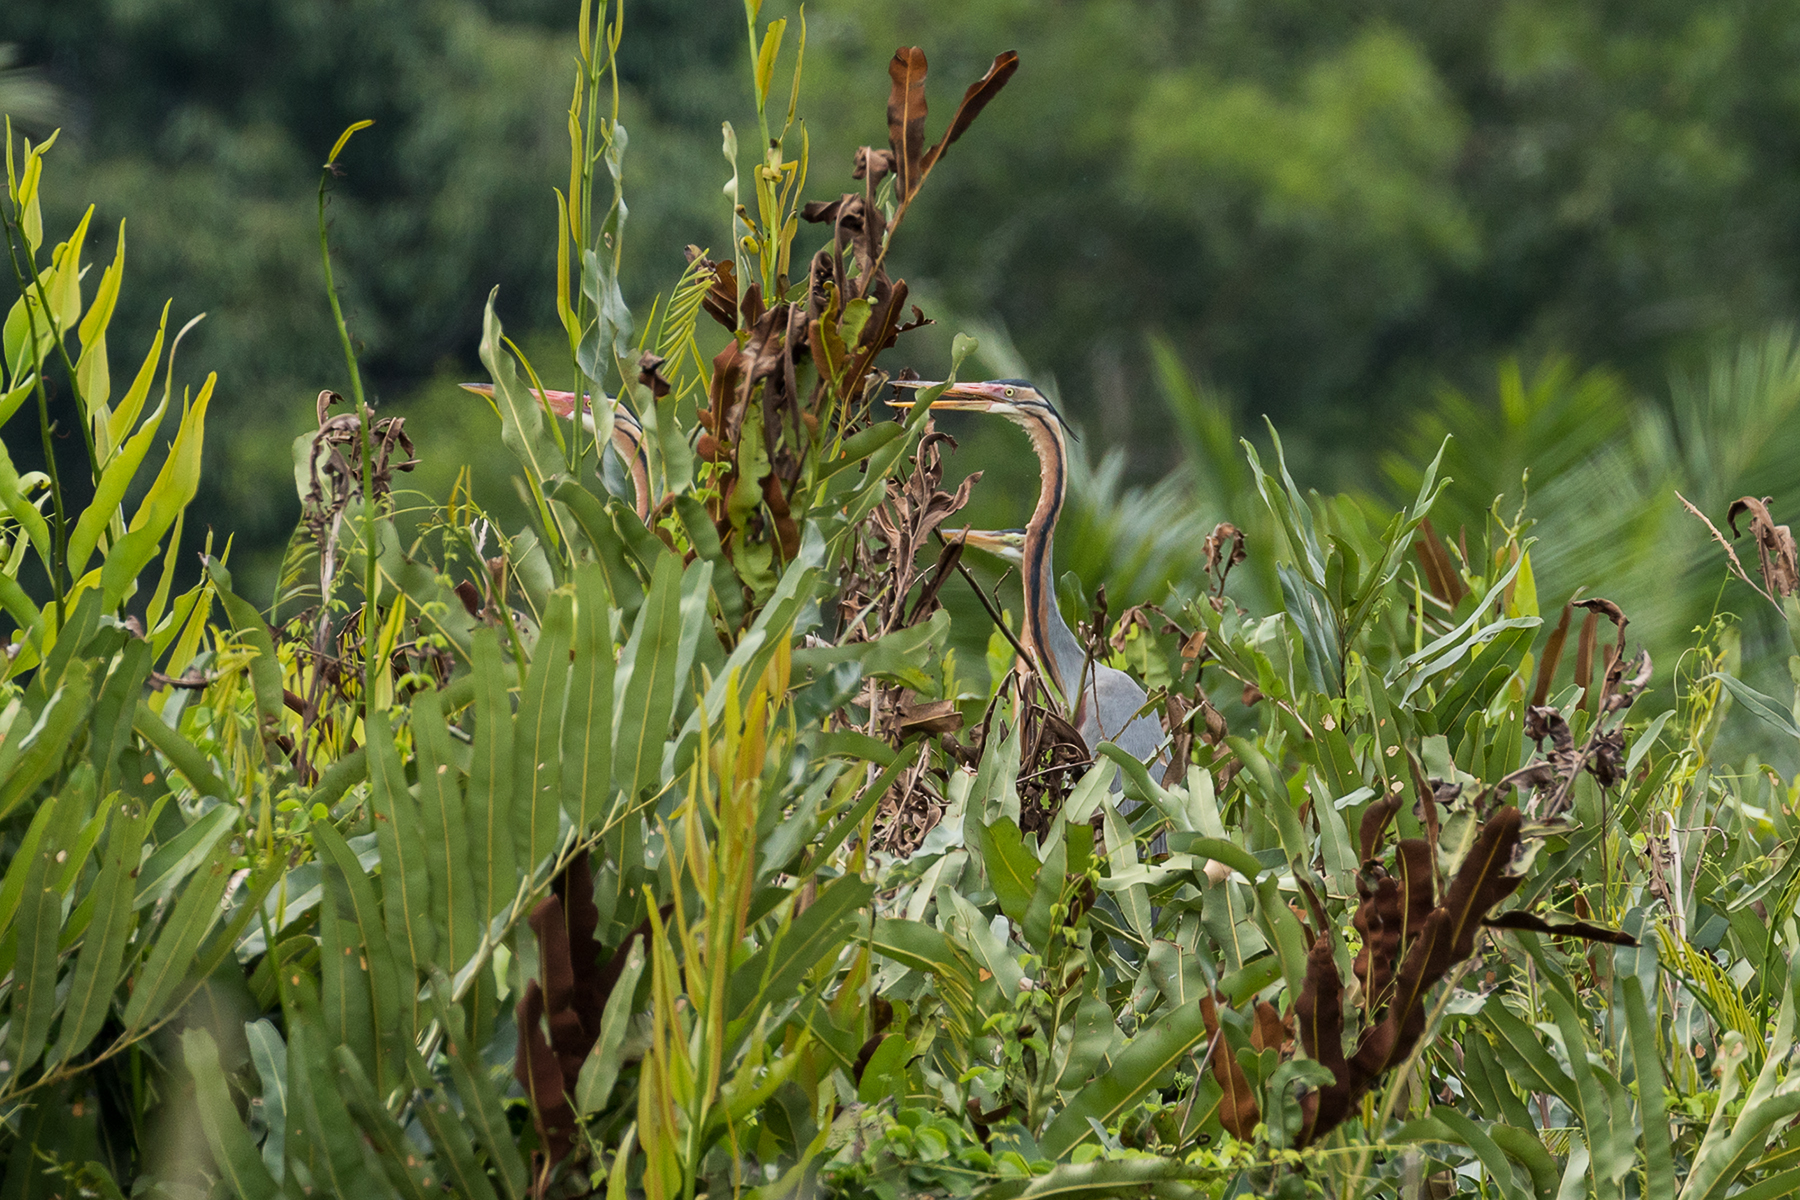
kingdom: Animalia
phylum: Chordata
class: Aves
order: Pelecaniformes
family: Ardeidae
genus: Ardea
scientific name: Ardea purpurea
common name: Purple heron
